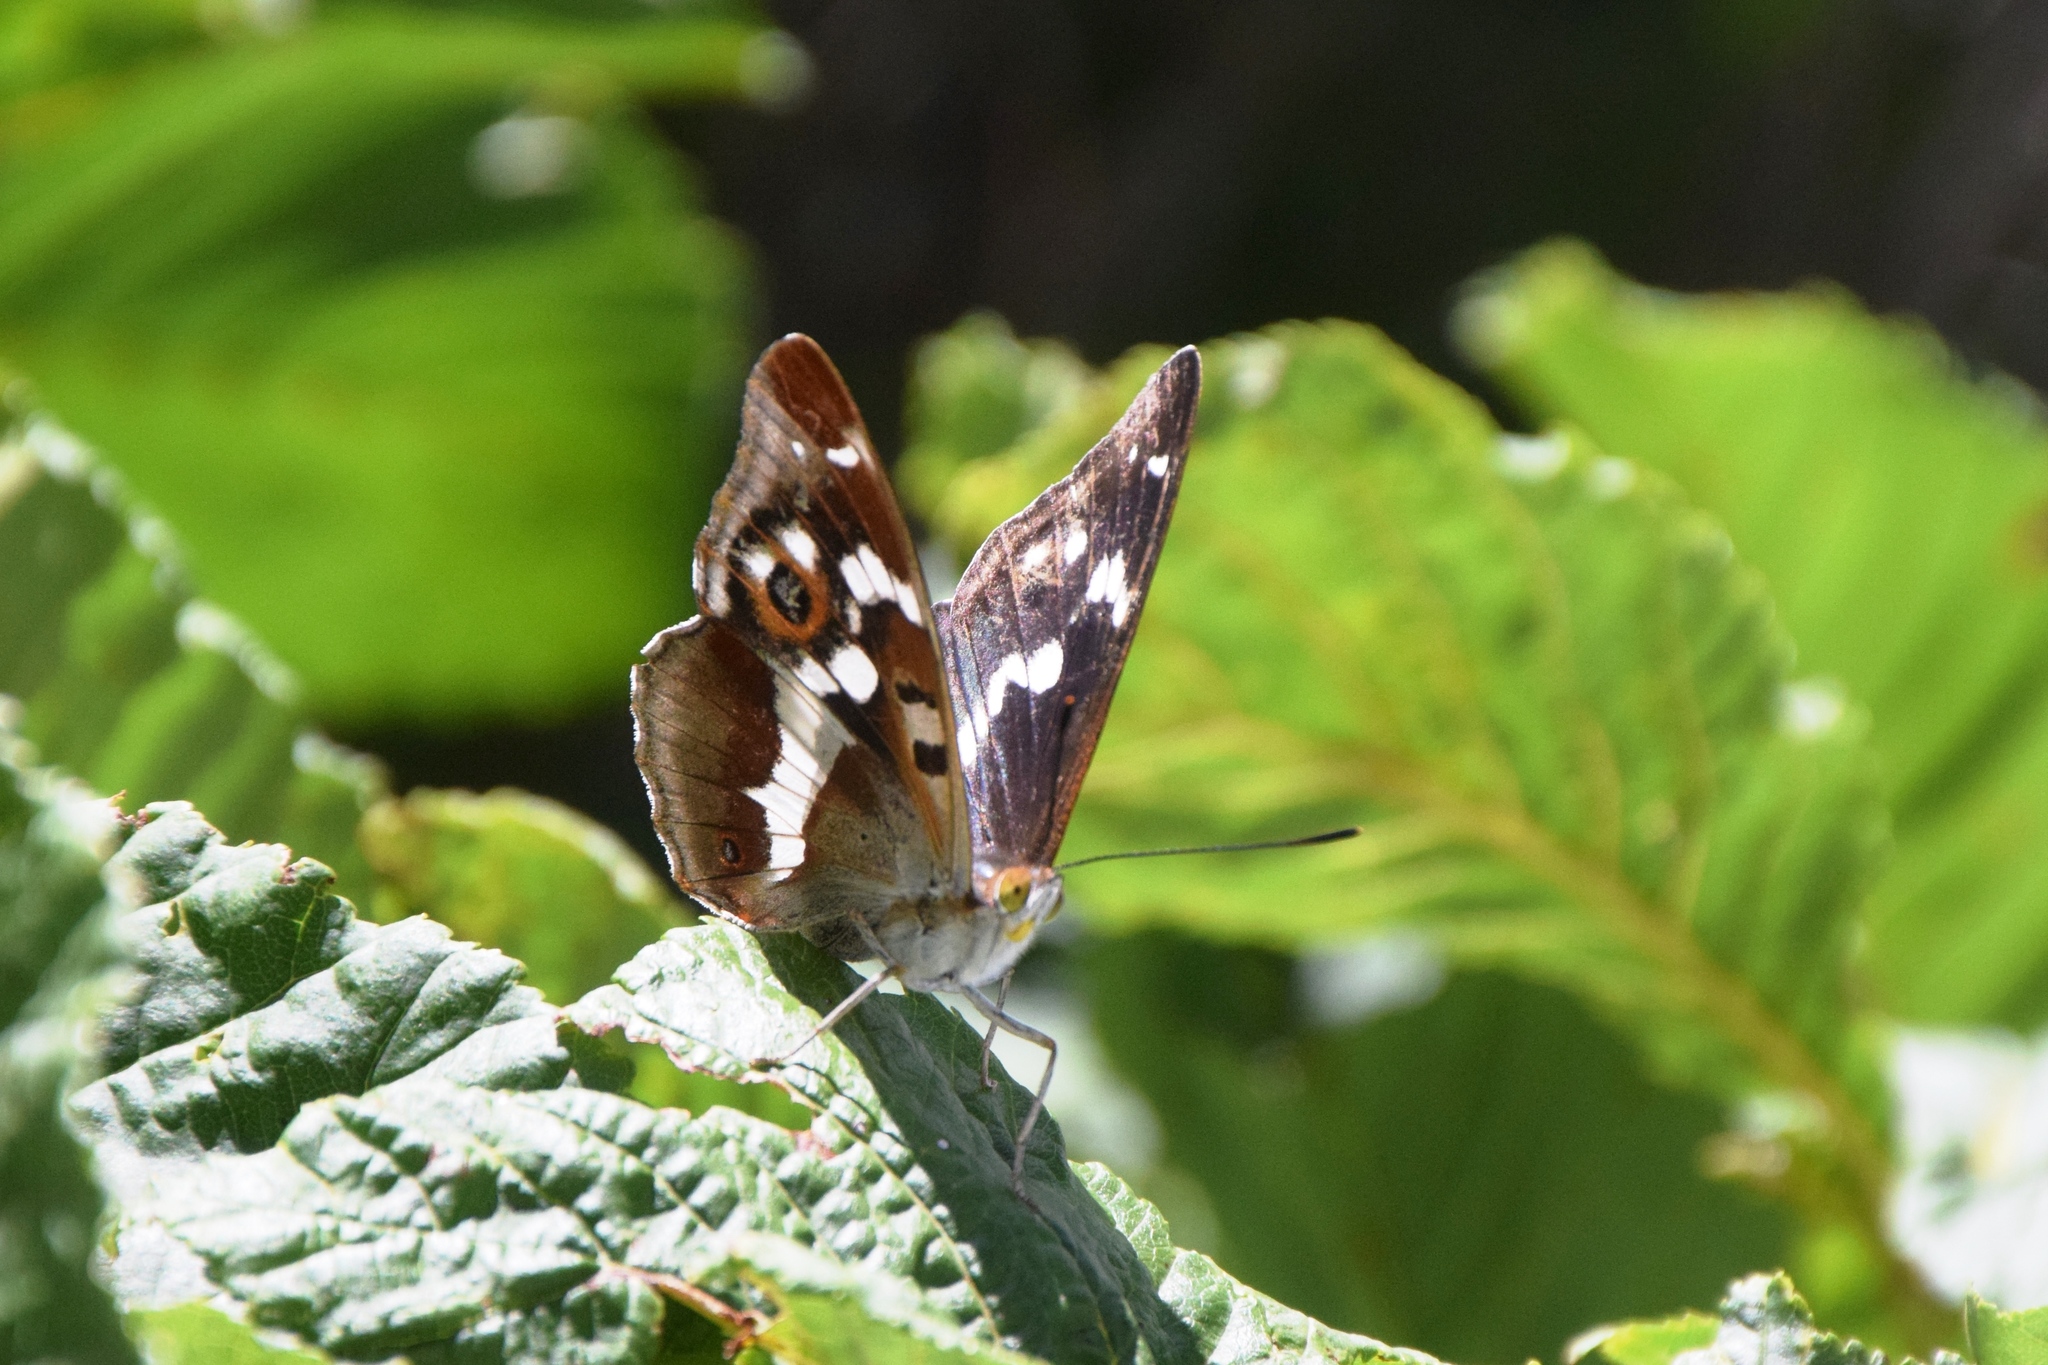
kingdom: Animalia
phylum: Arthropoda
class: Insecta
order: Lepidoptera
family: Nymphalidae
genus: Apatura
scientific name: Apatura iris
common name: Purple emperor
